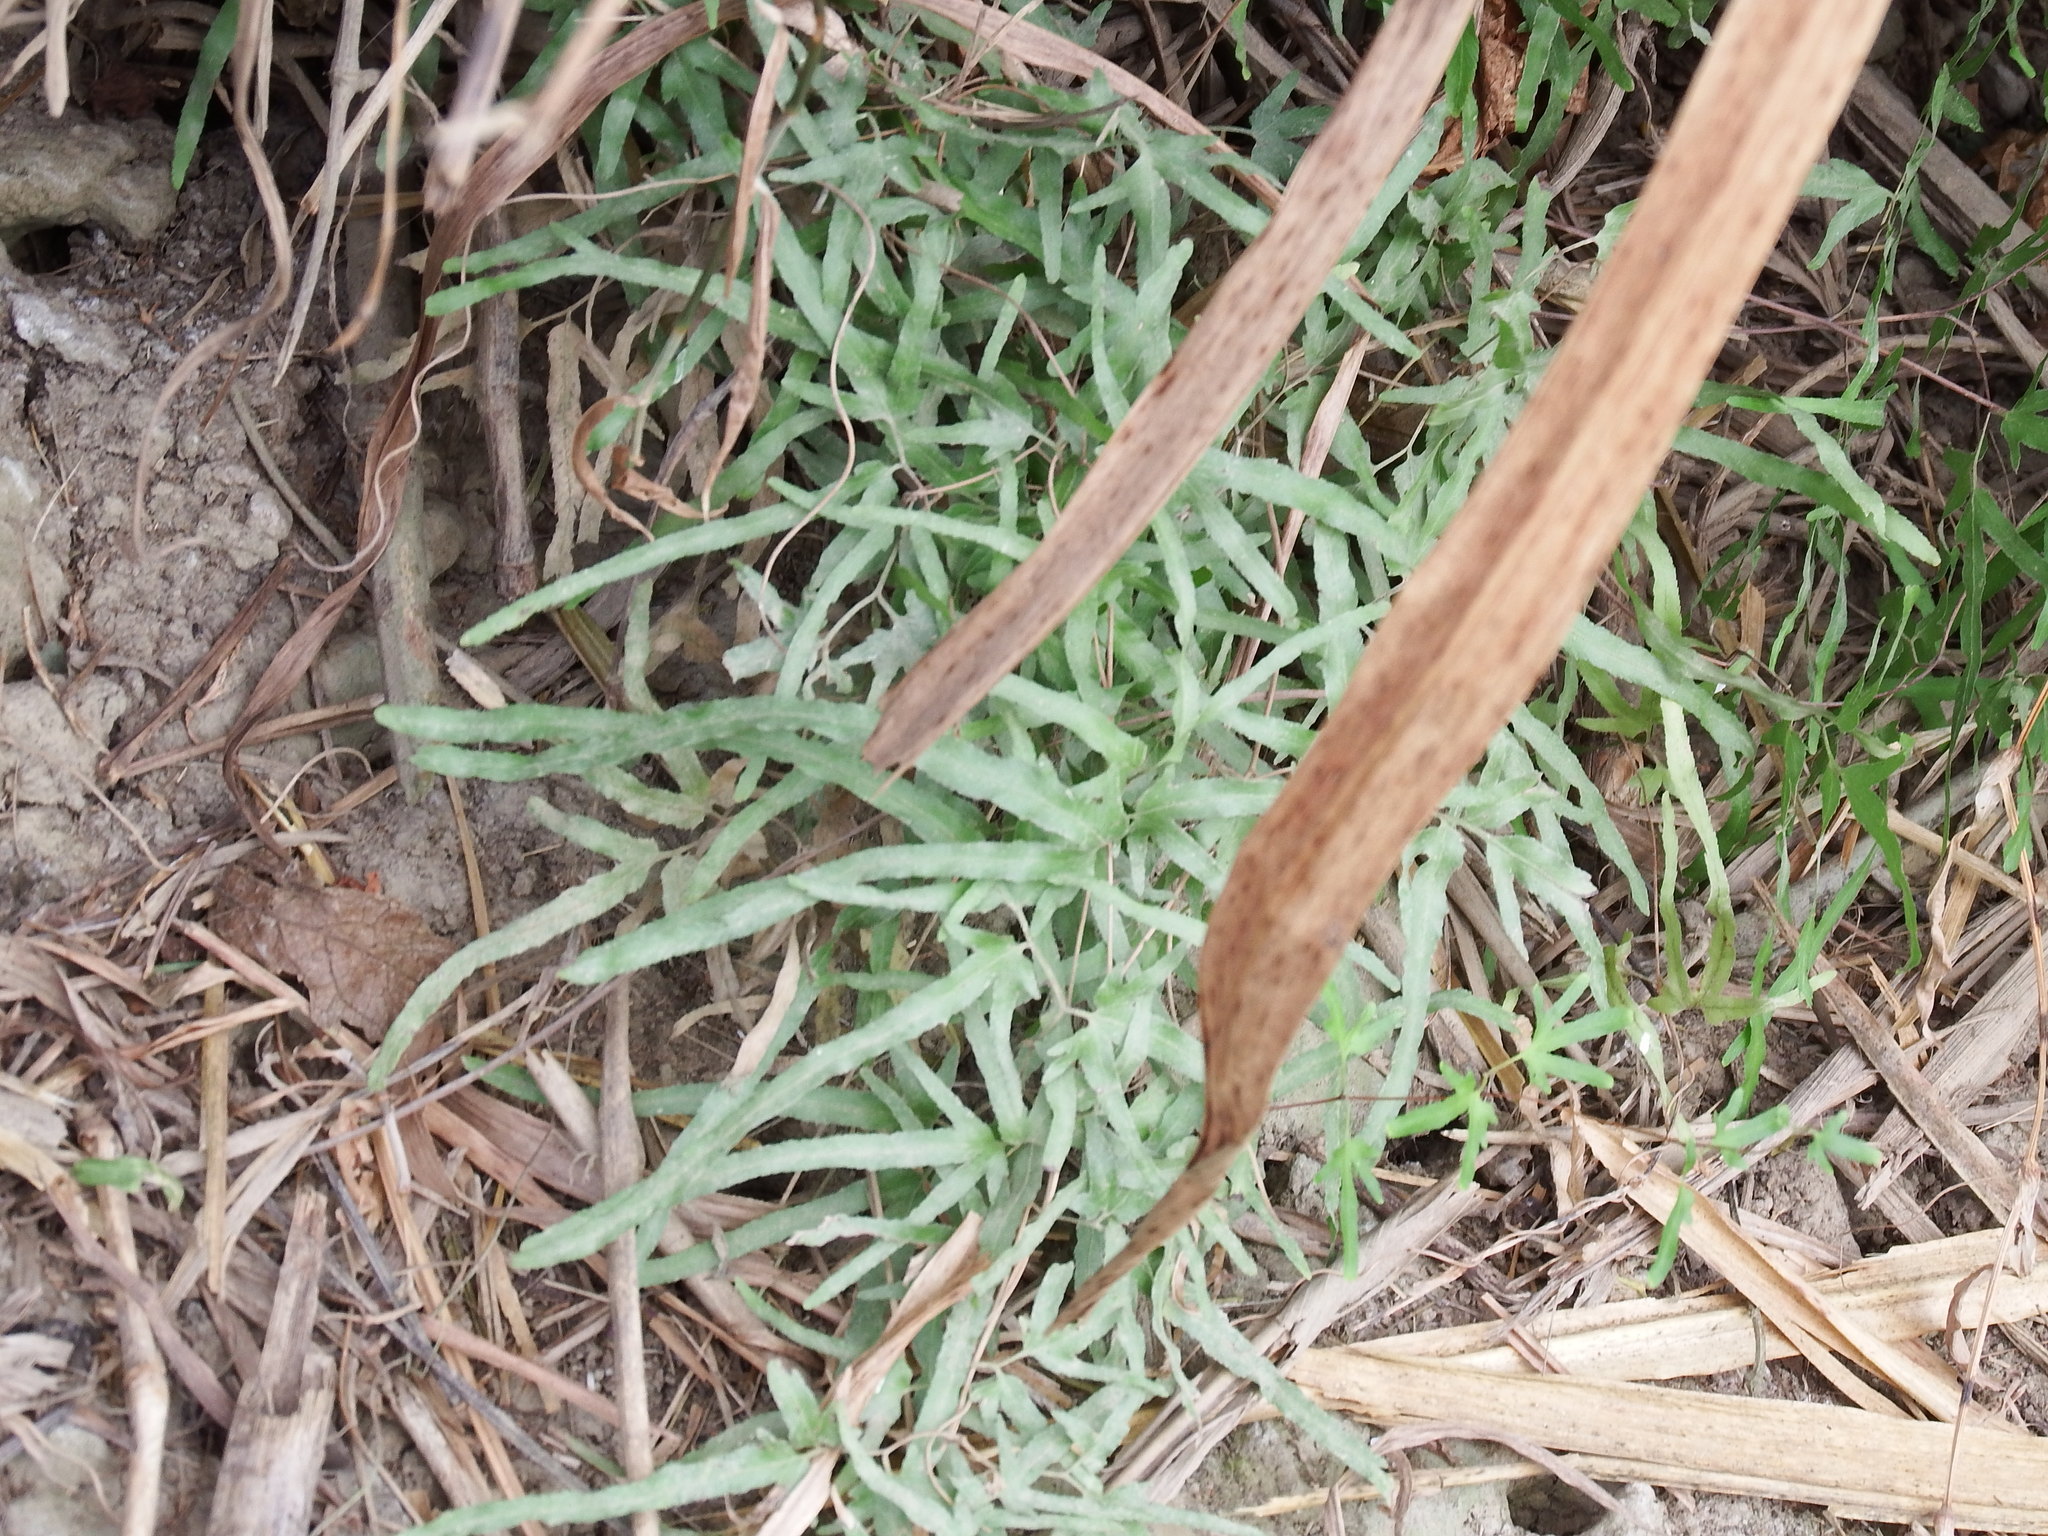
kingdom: Plantae
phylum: Tracheophyta
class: Polypodiopsida
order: Schizaeales
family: Lygodiaceae
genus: Lygodium
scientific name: Lygodium japonicum
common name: Japanese climbing fern
